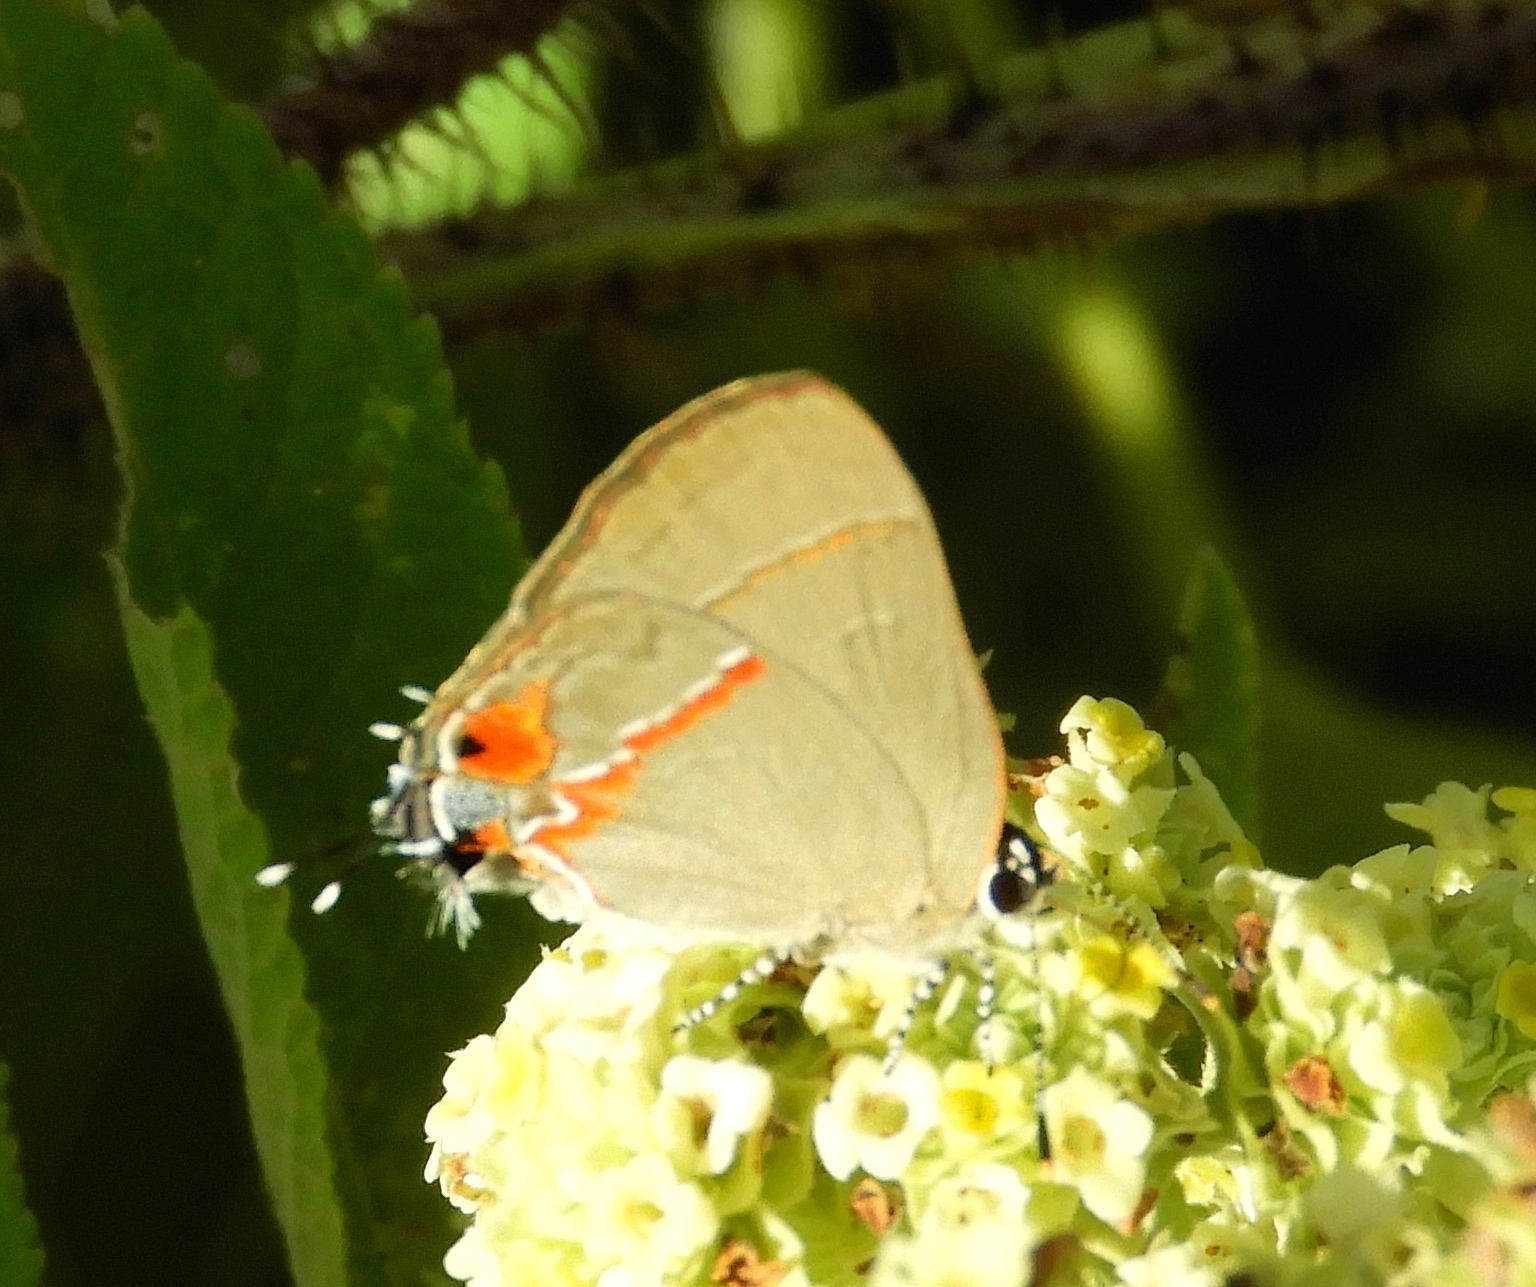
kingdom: Animalia
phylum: Arthropoda
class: Insecta
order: Lepidoptera
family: Lycaenidae
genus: Electrostrymon
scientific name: Electrostrymon endymion
